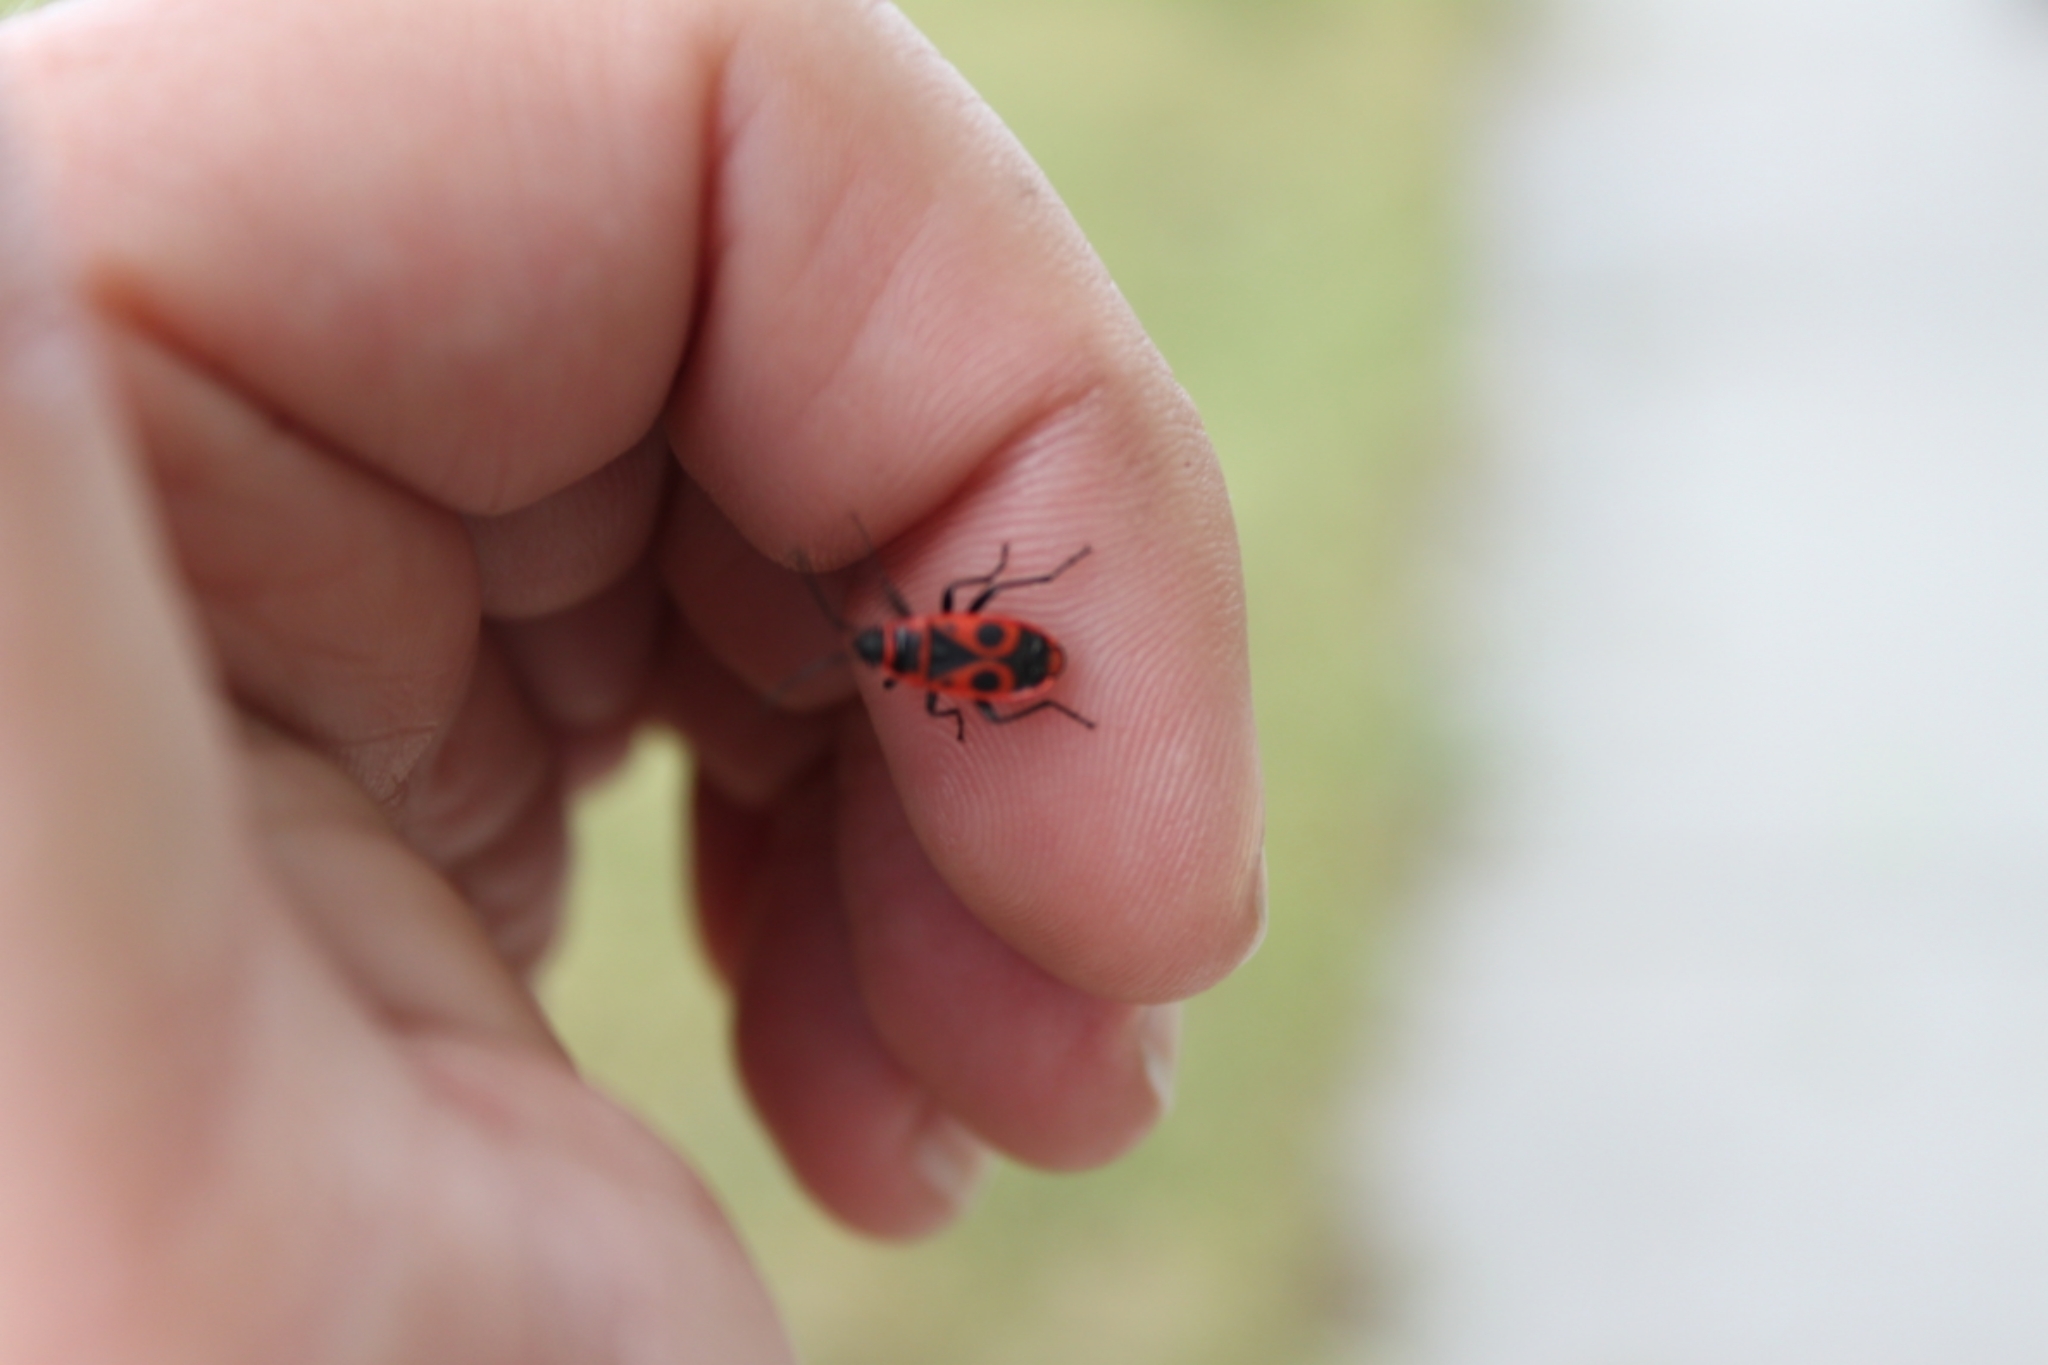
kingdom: Animalia
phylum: Arthropoda
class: Insecta
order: Hemiptera
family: Pyrrhocoridae
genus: Pyrrhocoris
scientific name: Pyrrhocoris apterus
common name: Firebug
